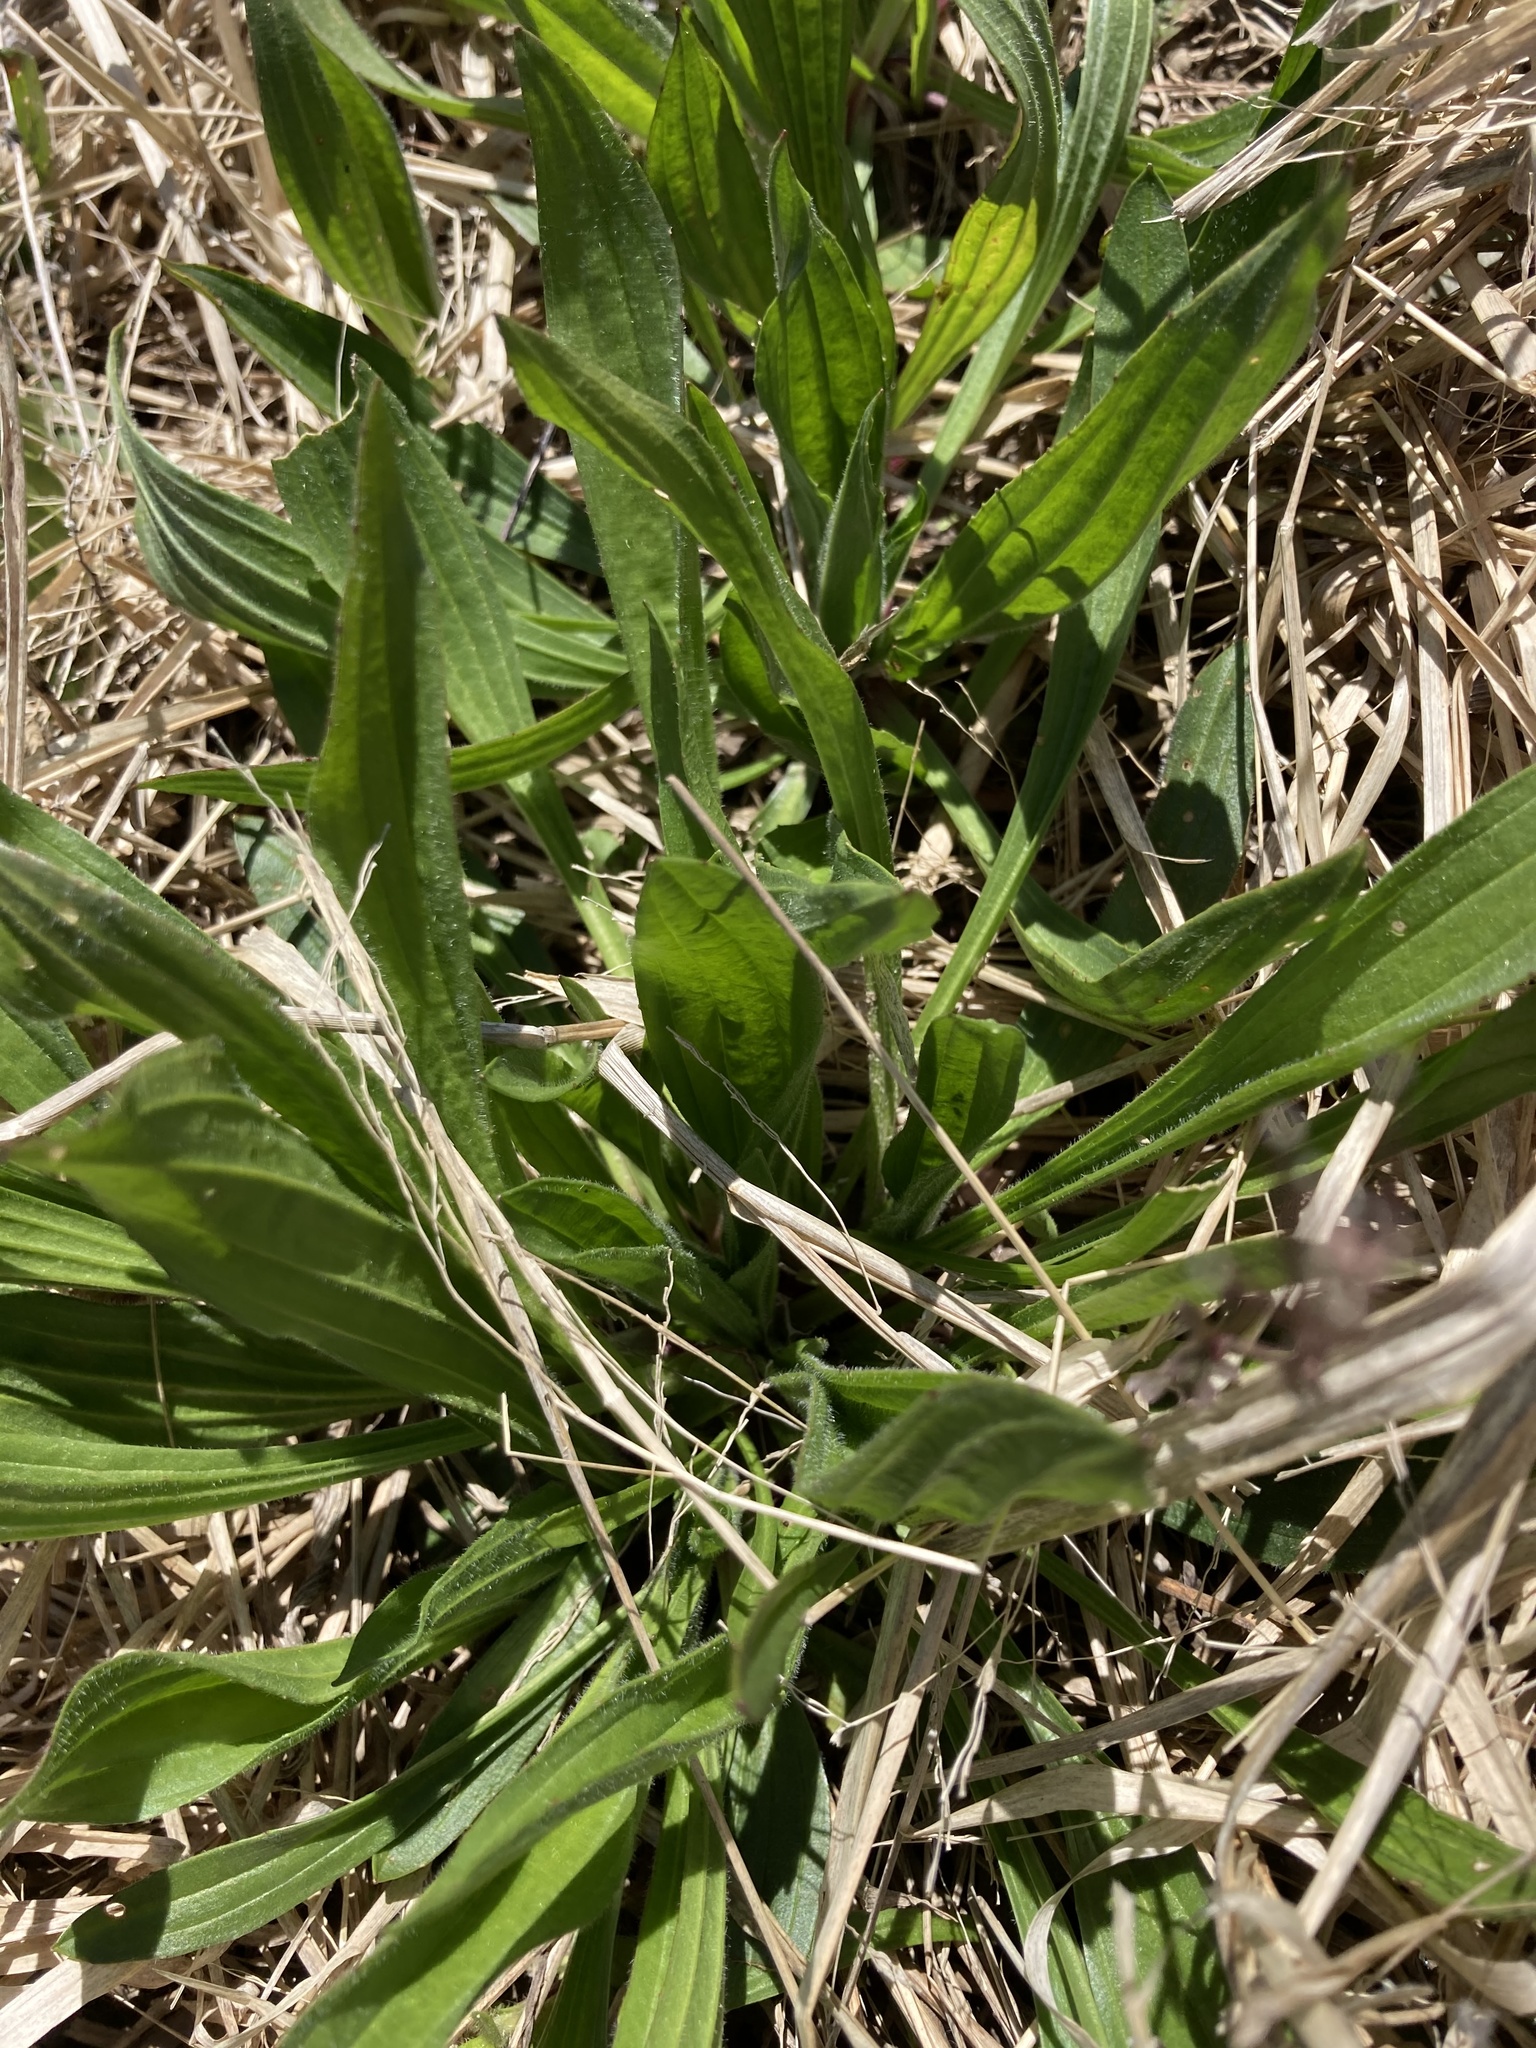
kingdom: Plantae
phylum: Tracheophyta
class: Magnoliopsida
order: Lamiales
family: Plantaginaceae
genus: Plantago
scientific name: Plantago lanceolata
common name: Ribwort plantain
